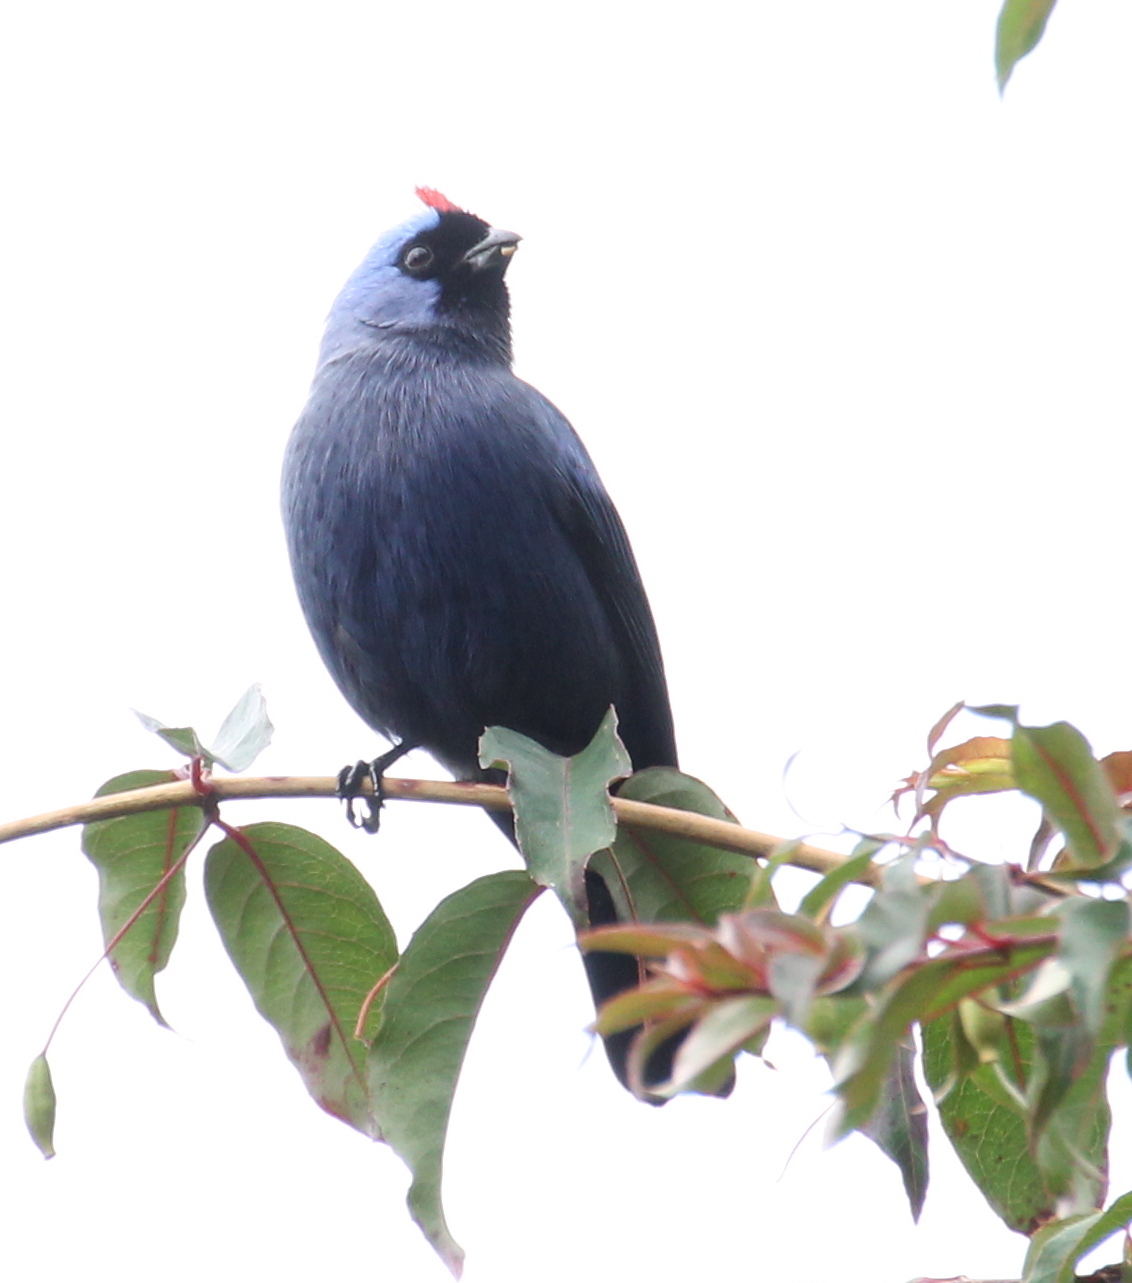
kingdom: Animalia
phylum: Chordata
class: Aves
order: Passeriformes
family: Thraupidae
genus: Stephanophorus
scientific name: Stephanophorus diadematus
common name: Diademed tanager
